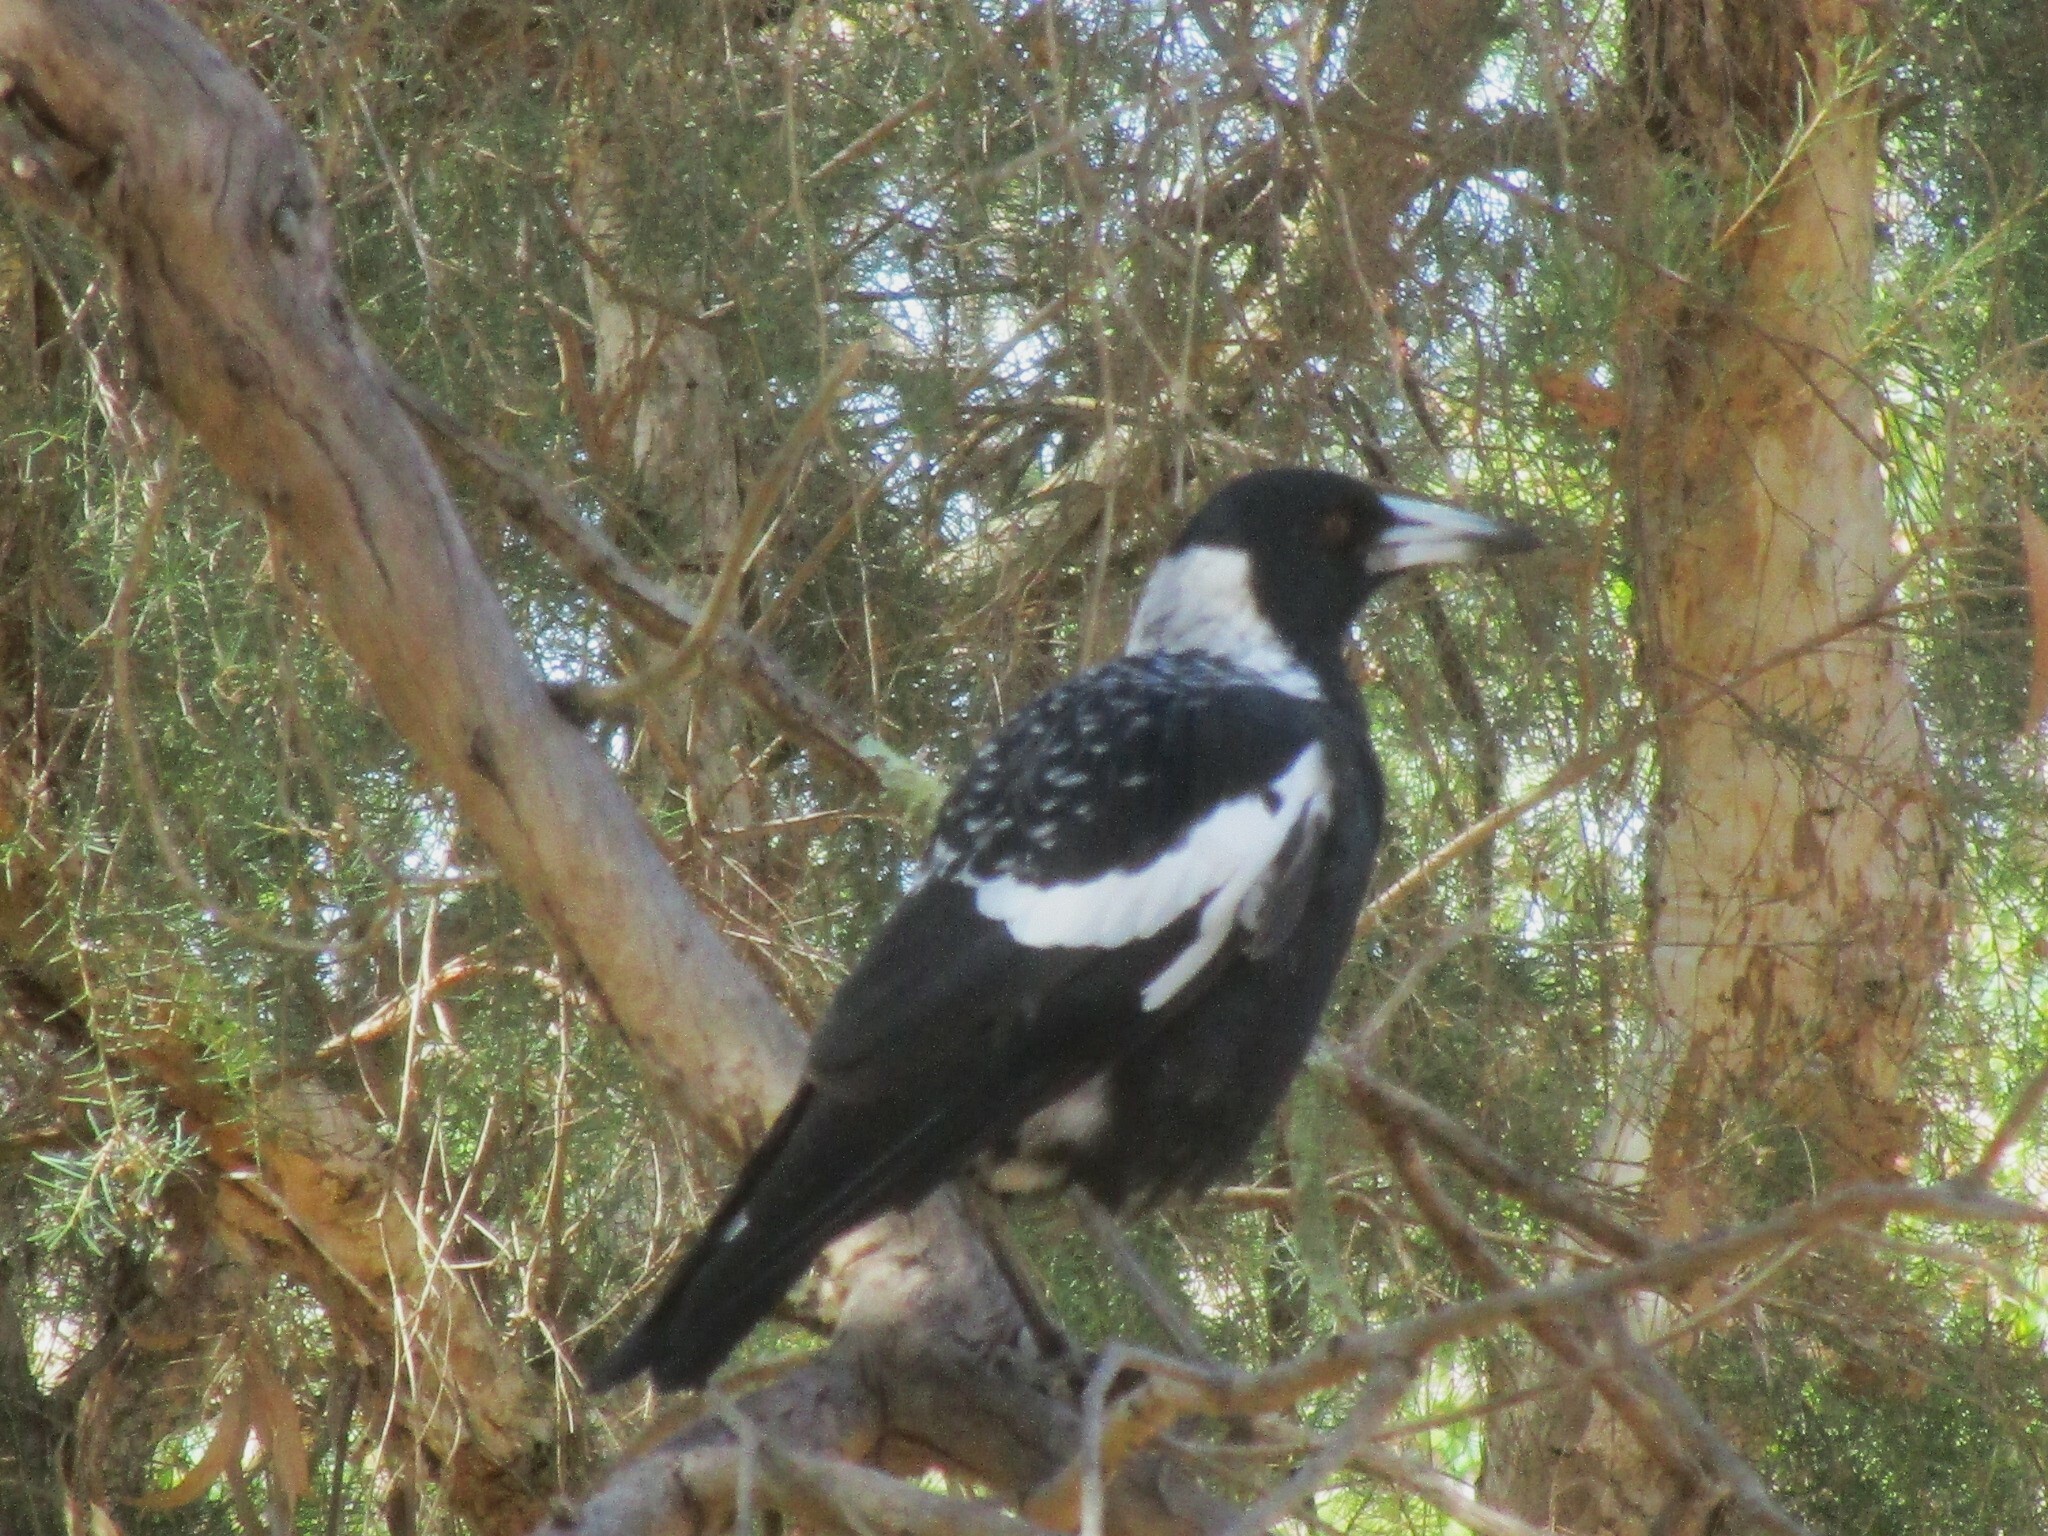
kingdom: Animalia
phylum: Chordata
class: Aves
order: Passeriformes
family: Cracticidae
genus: Gymnorhina
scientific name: Gymnorhina tibicen
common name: Australian magpie
